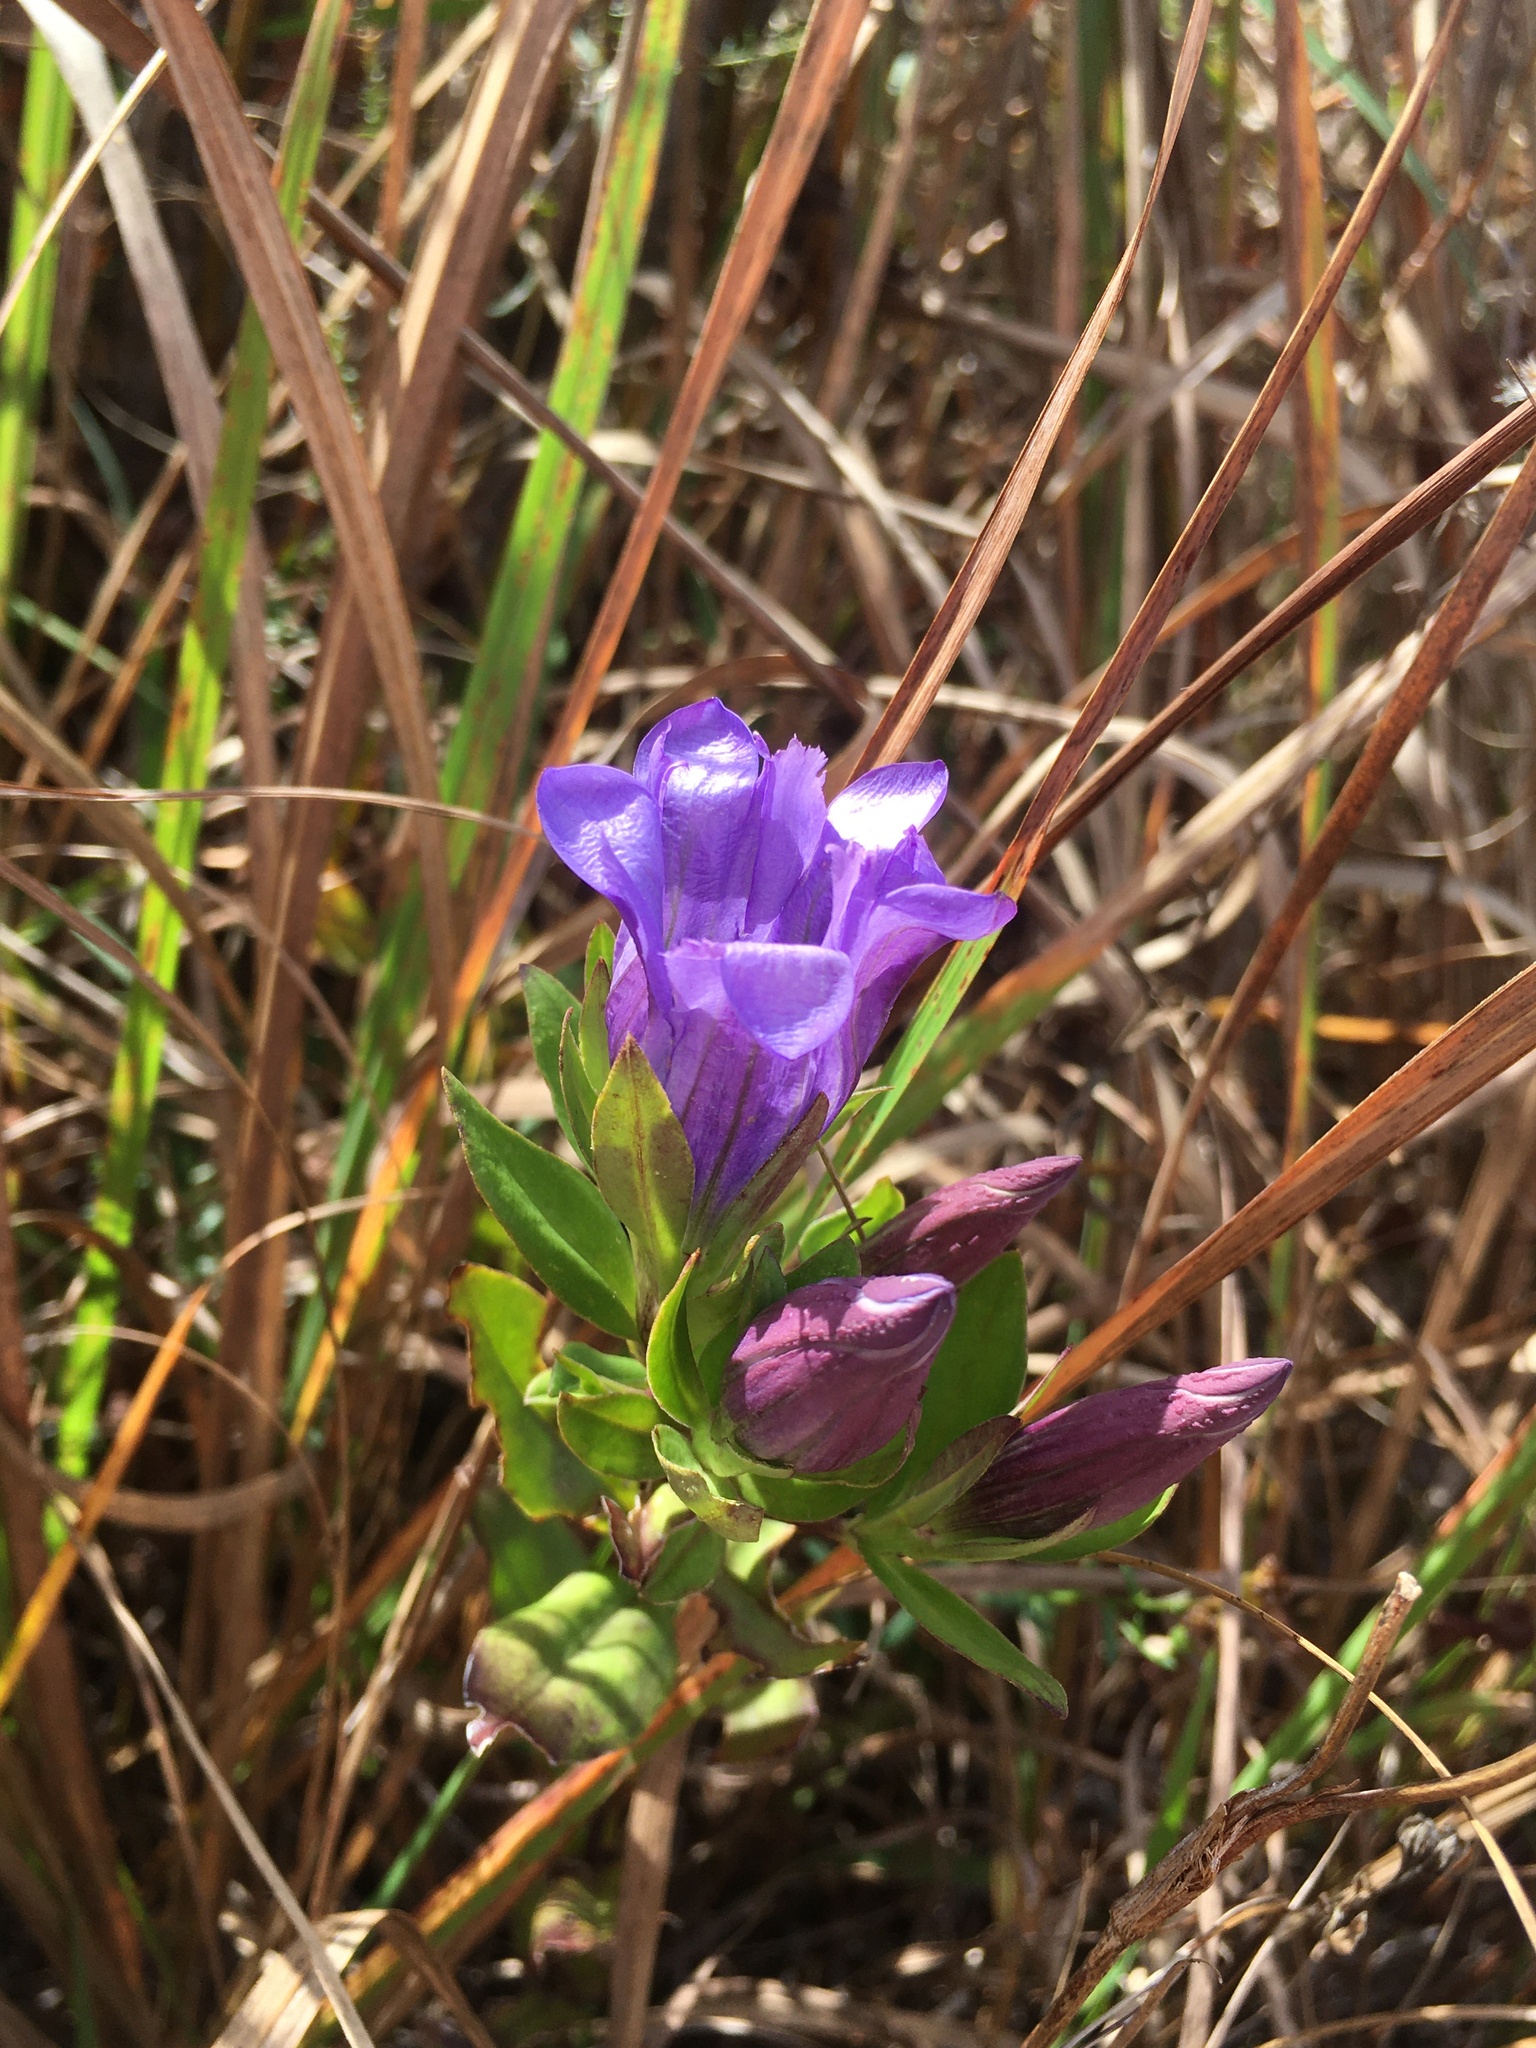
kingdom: Plantae
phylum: Tracheophyta
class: Magnoliopsida
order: Gentianales
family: Gentianaceae
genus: Gentiana
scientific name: Gentiana catesbaei
